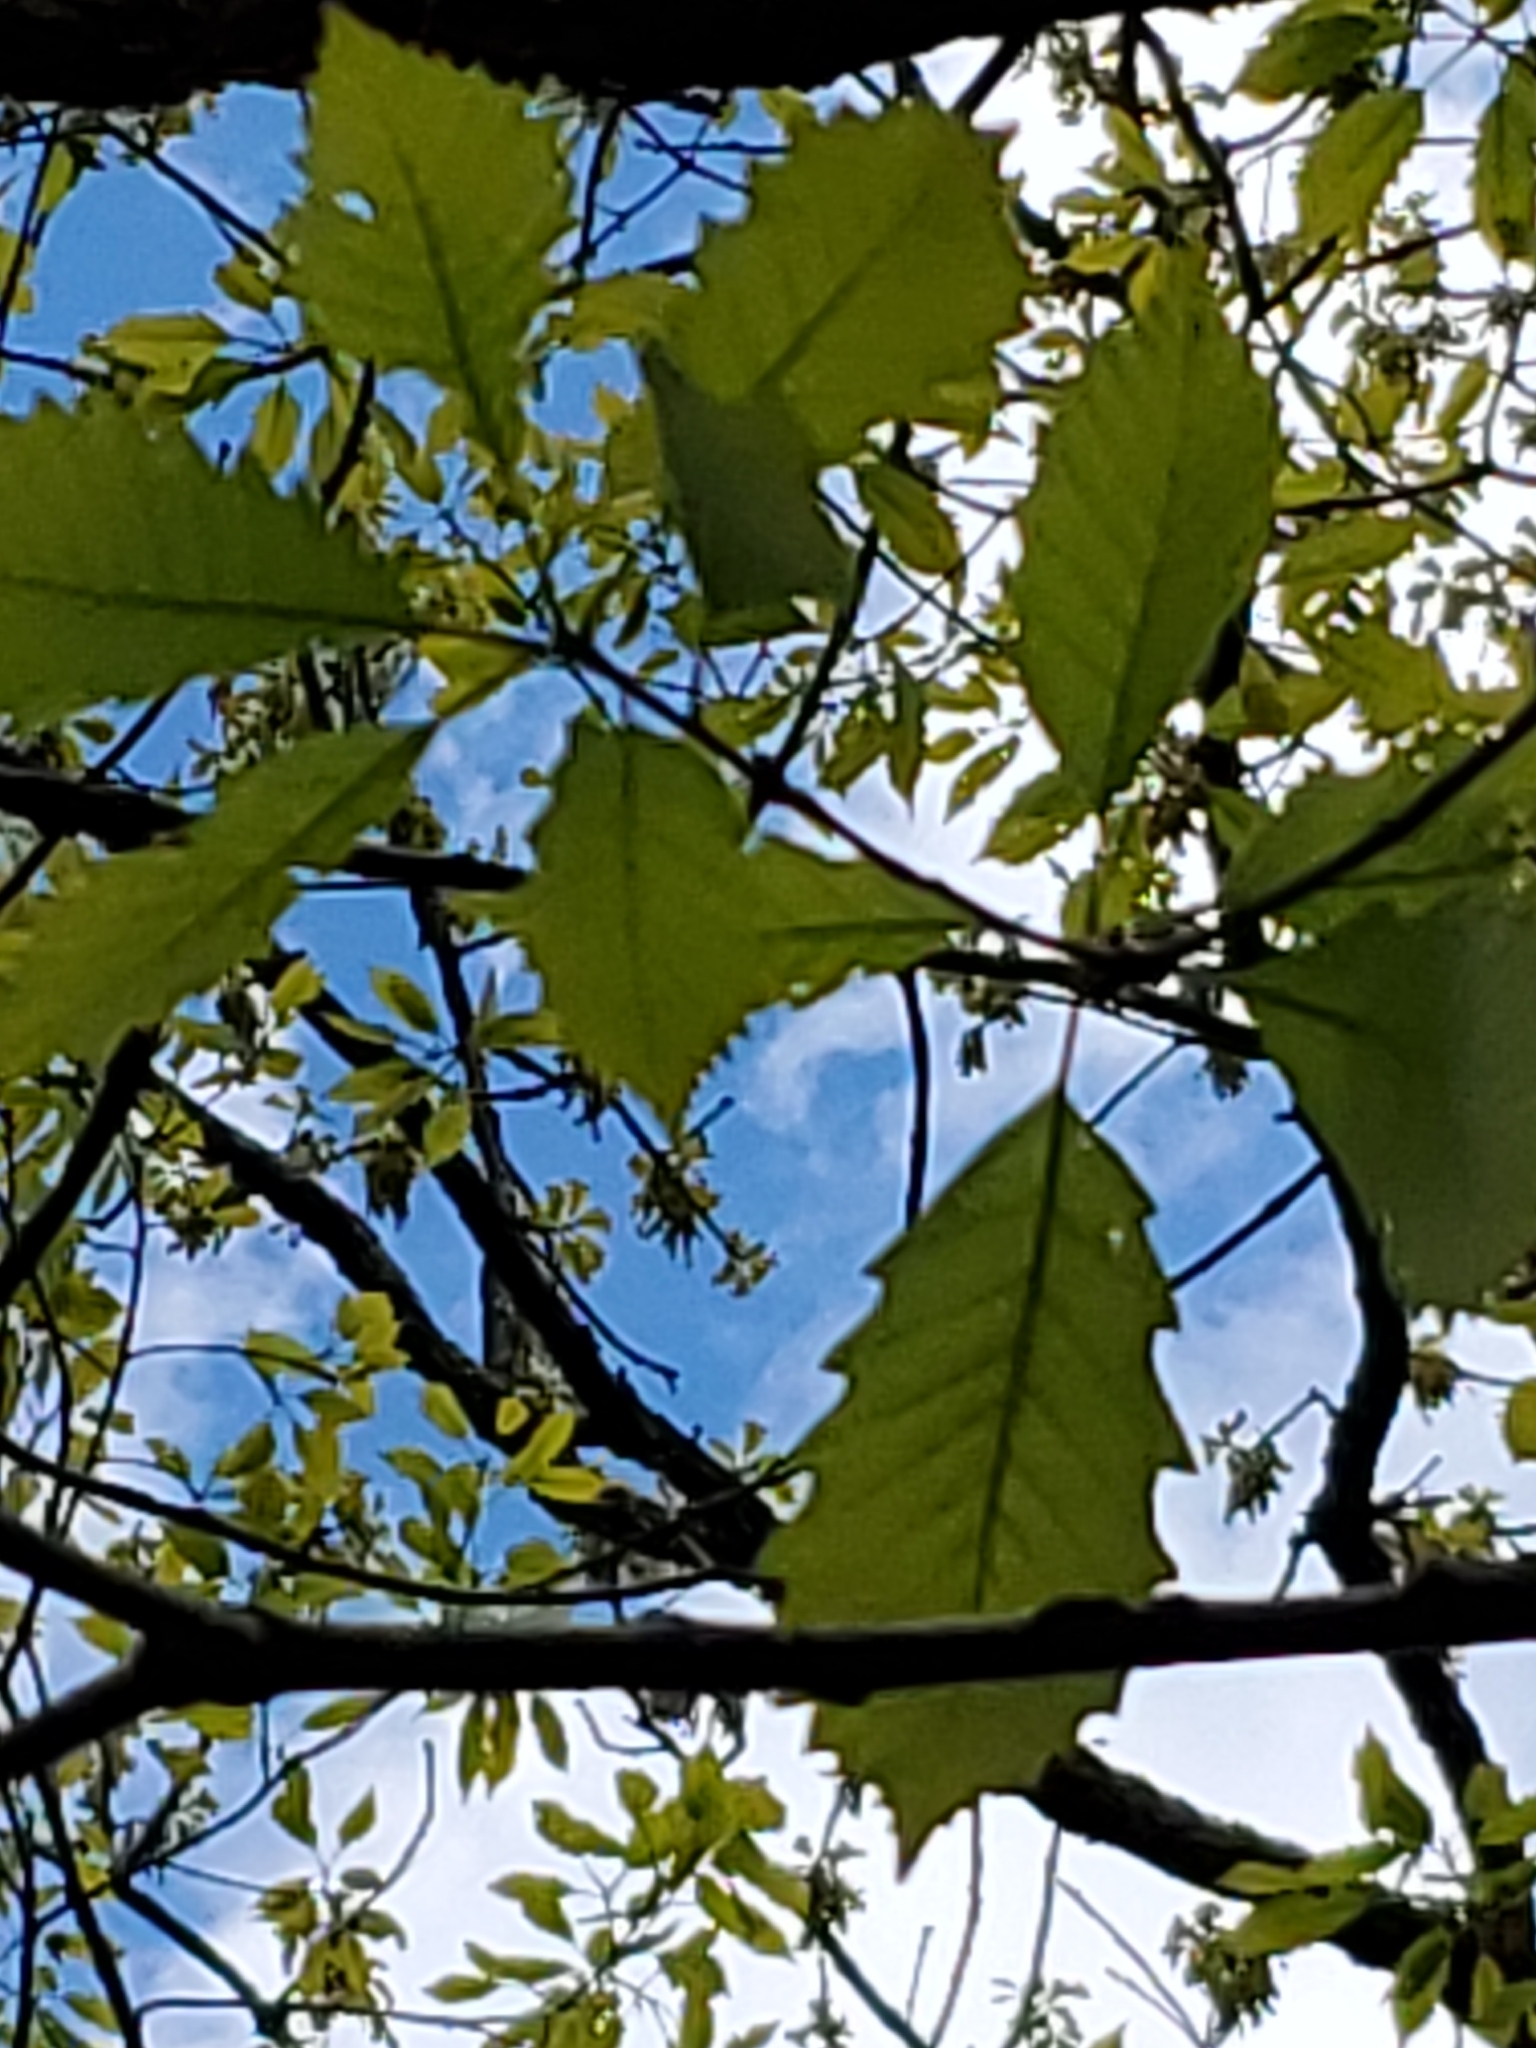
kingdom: Plantae
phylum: Tracheophyta
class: Magnoliopsida
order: Fagales
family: Fagaceae
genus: Quercus
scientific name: Quercus muehlenbergii
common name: Chinkapin oak
